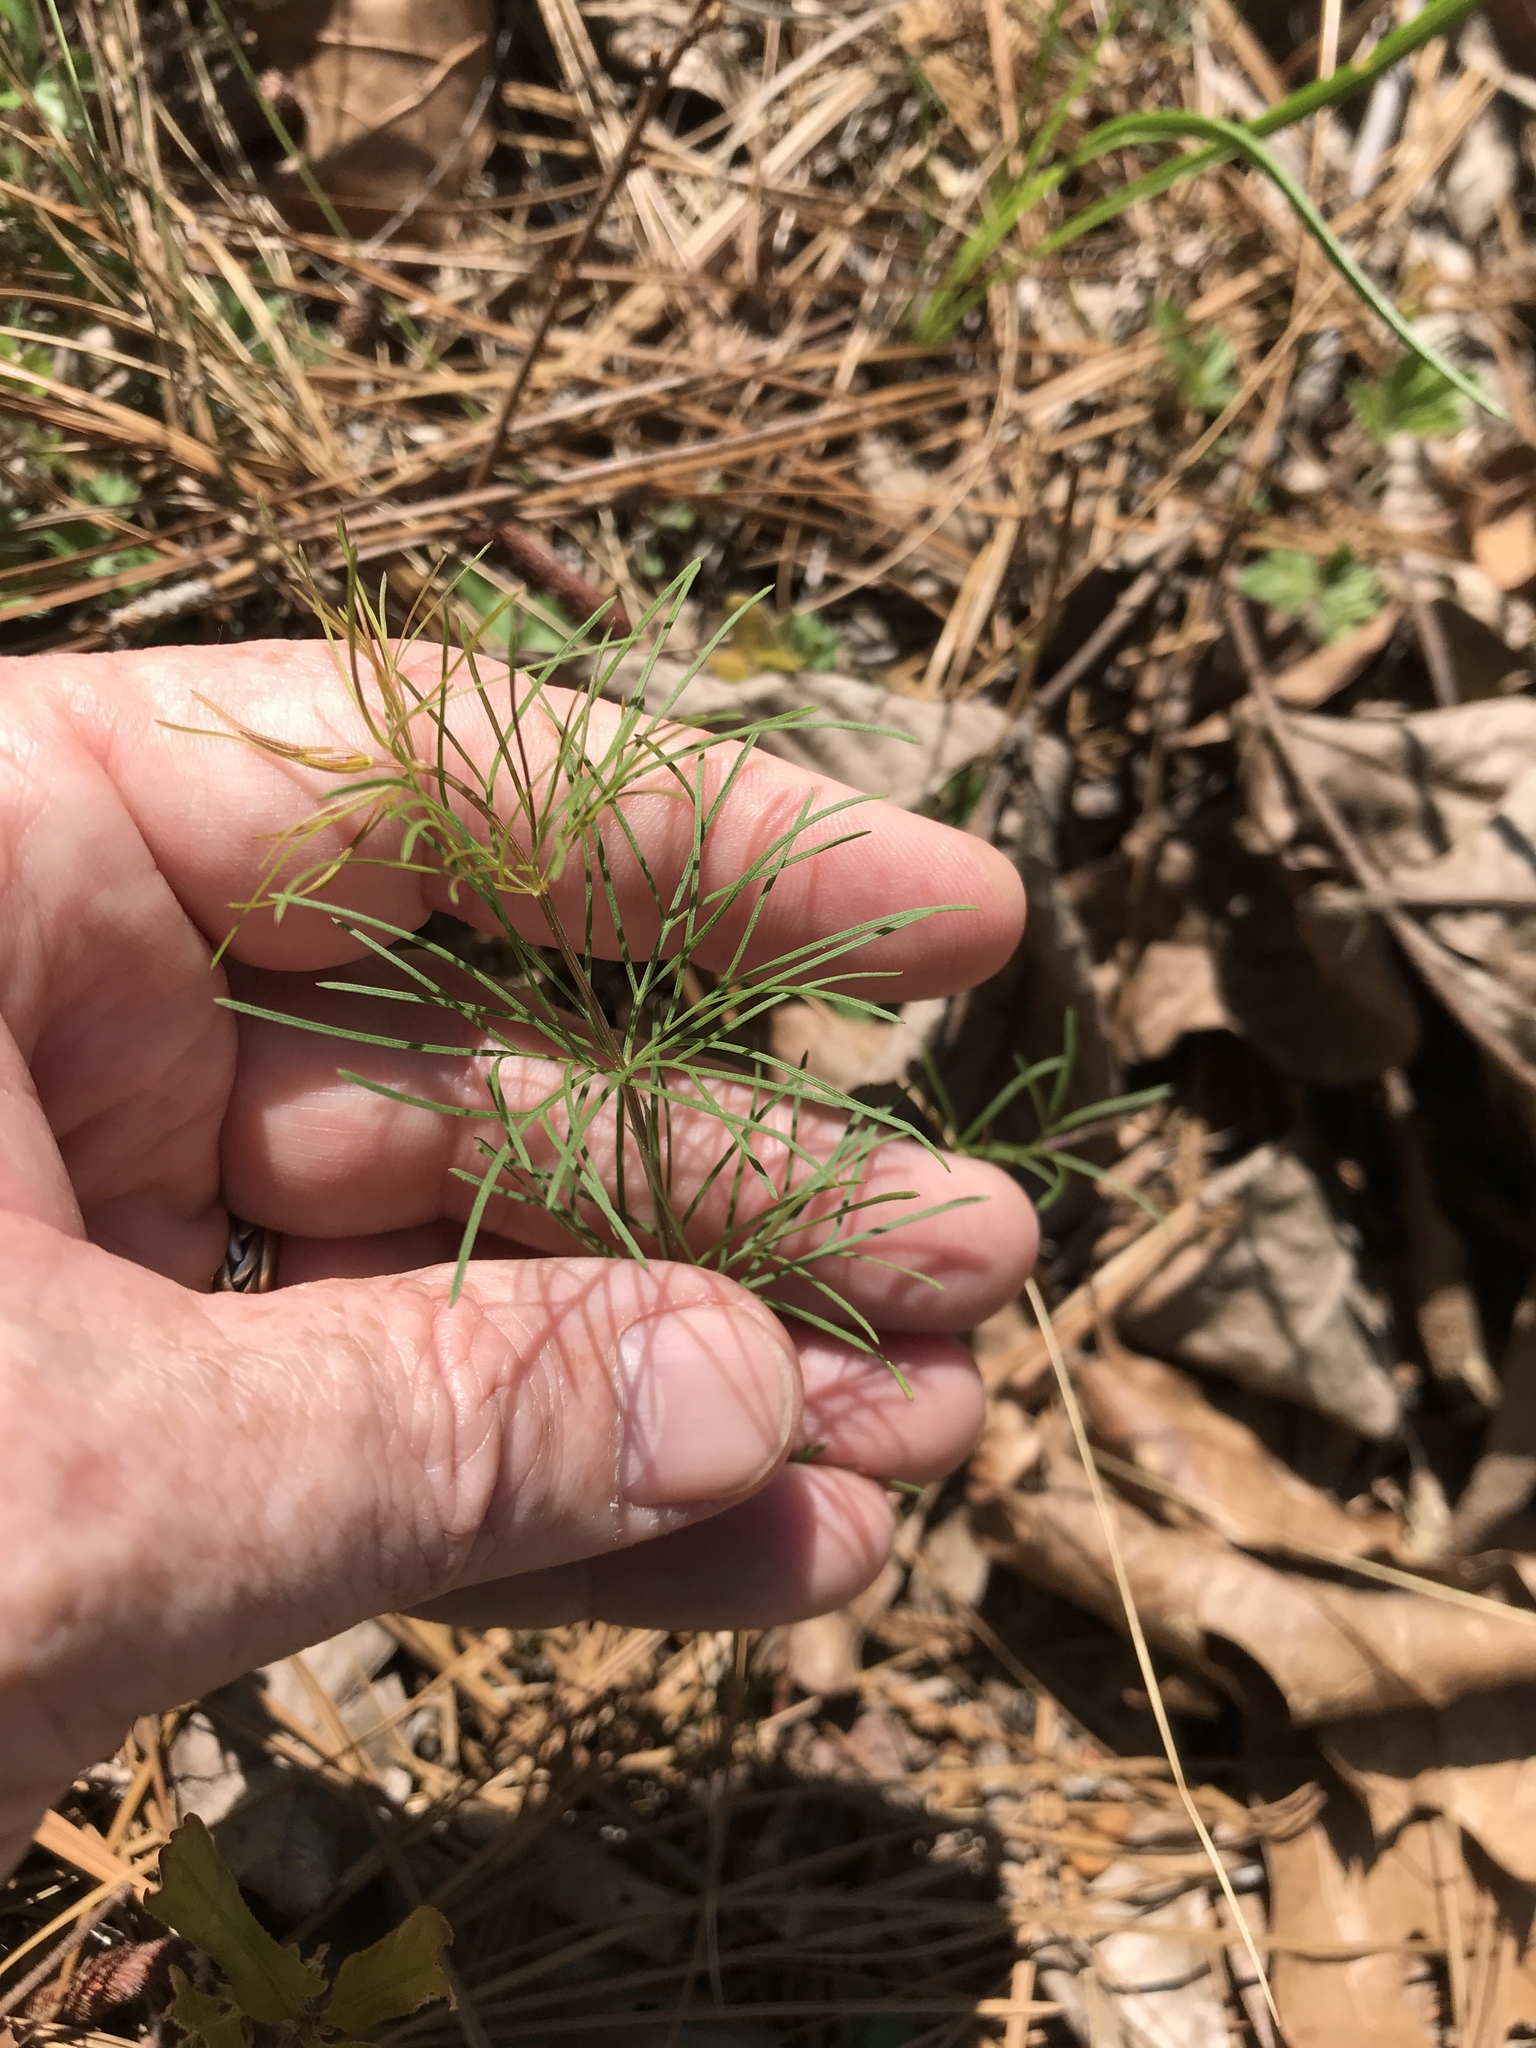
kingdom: Plantae
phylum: Tracheophyta
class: Magnoliopsida
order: Asterales
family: Asteraceae
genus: Coreopsis
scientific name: Coreopsis verticillata
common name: Whorled tickseed
